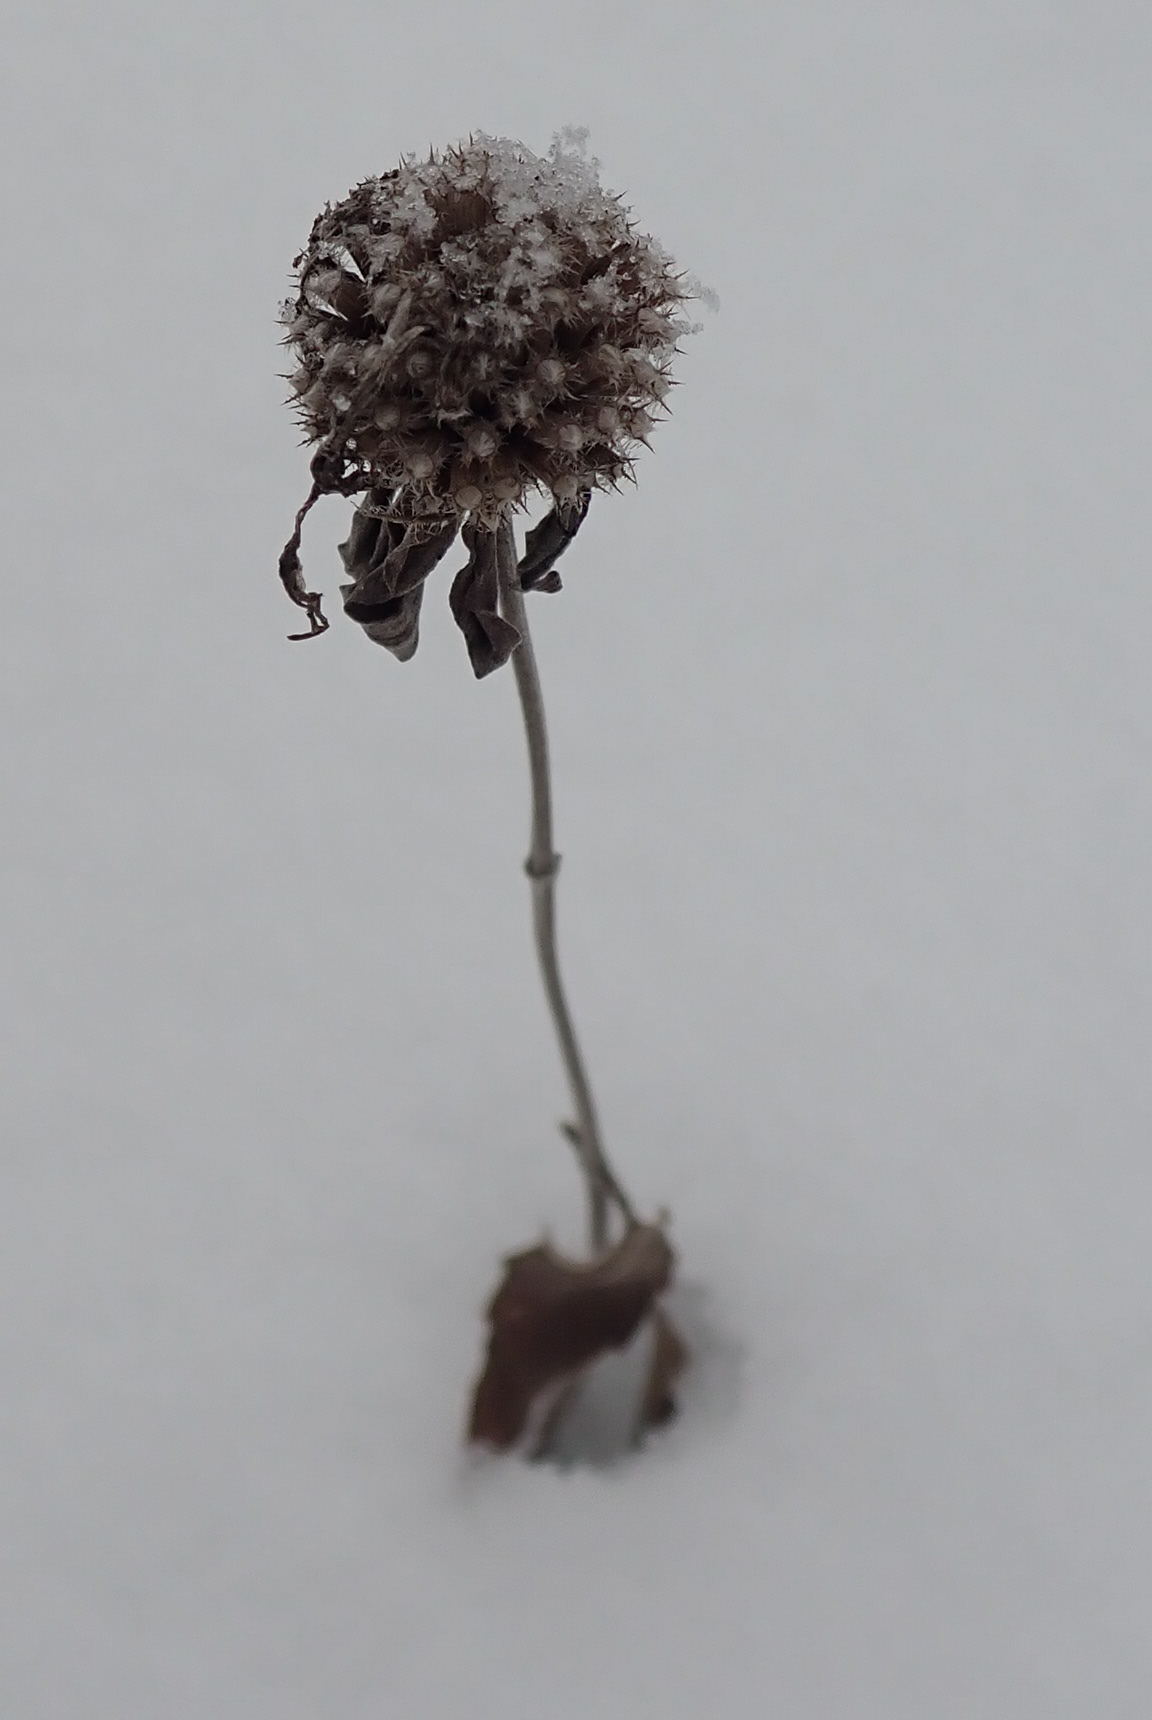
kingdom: Plantae
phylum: Tracheophyta
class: Magnoliopsida
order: Lamiales
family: Lamiaceae
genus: Monarda
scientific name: Monarda fistulosa
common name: Purple beebalm
